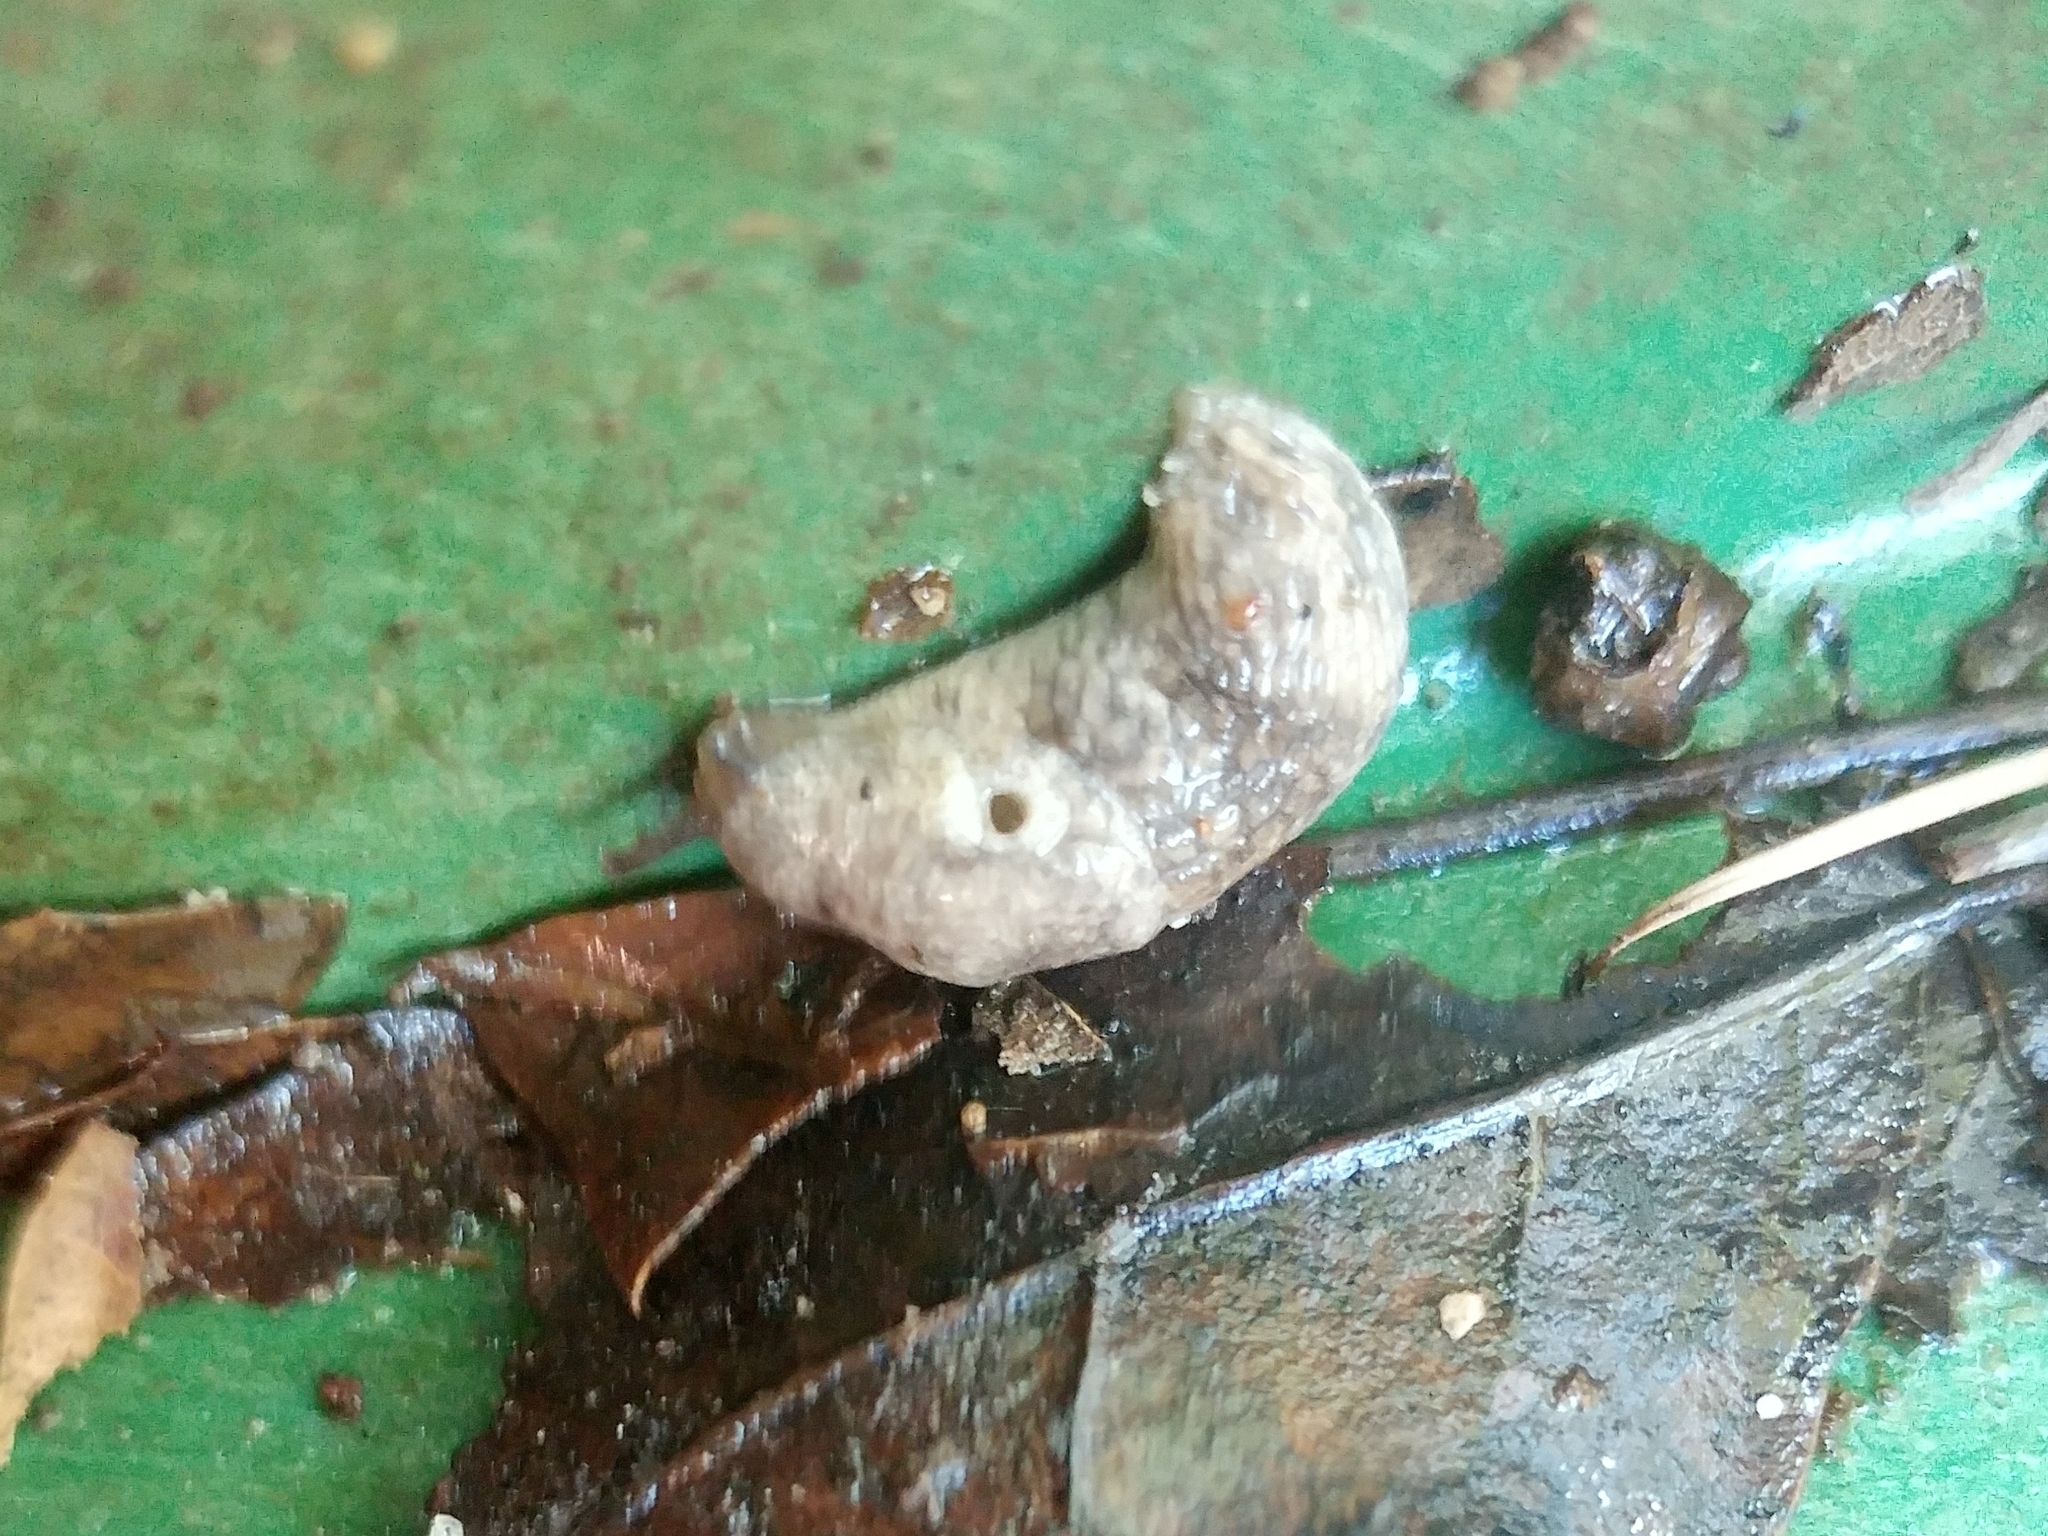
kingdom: Animalia
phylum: Mollusca
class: Gastropoda
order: Stylommatophora
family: Agriolimacidae
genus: Deroceras
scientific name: Deroceras reticulatum
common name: Gray field slug
